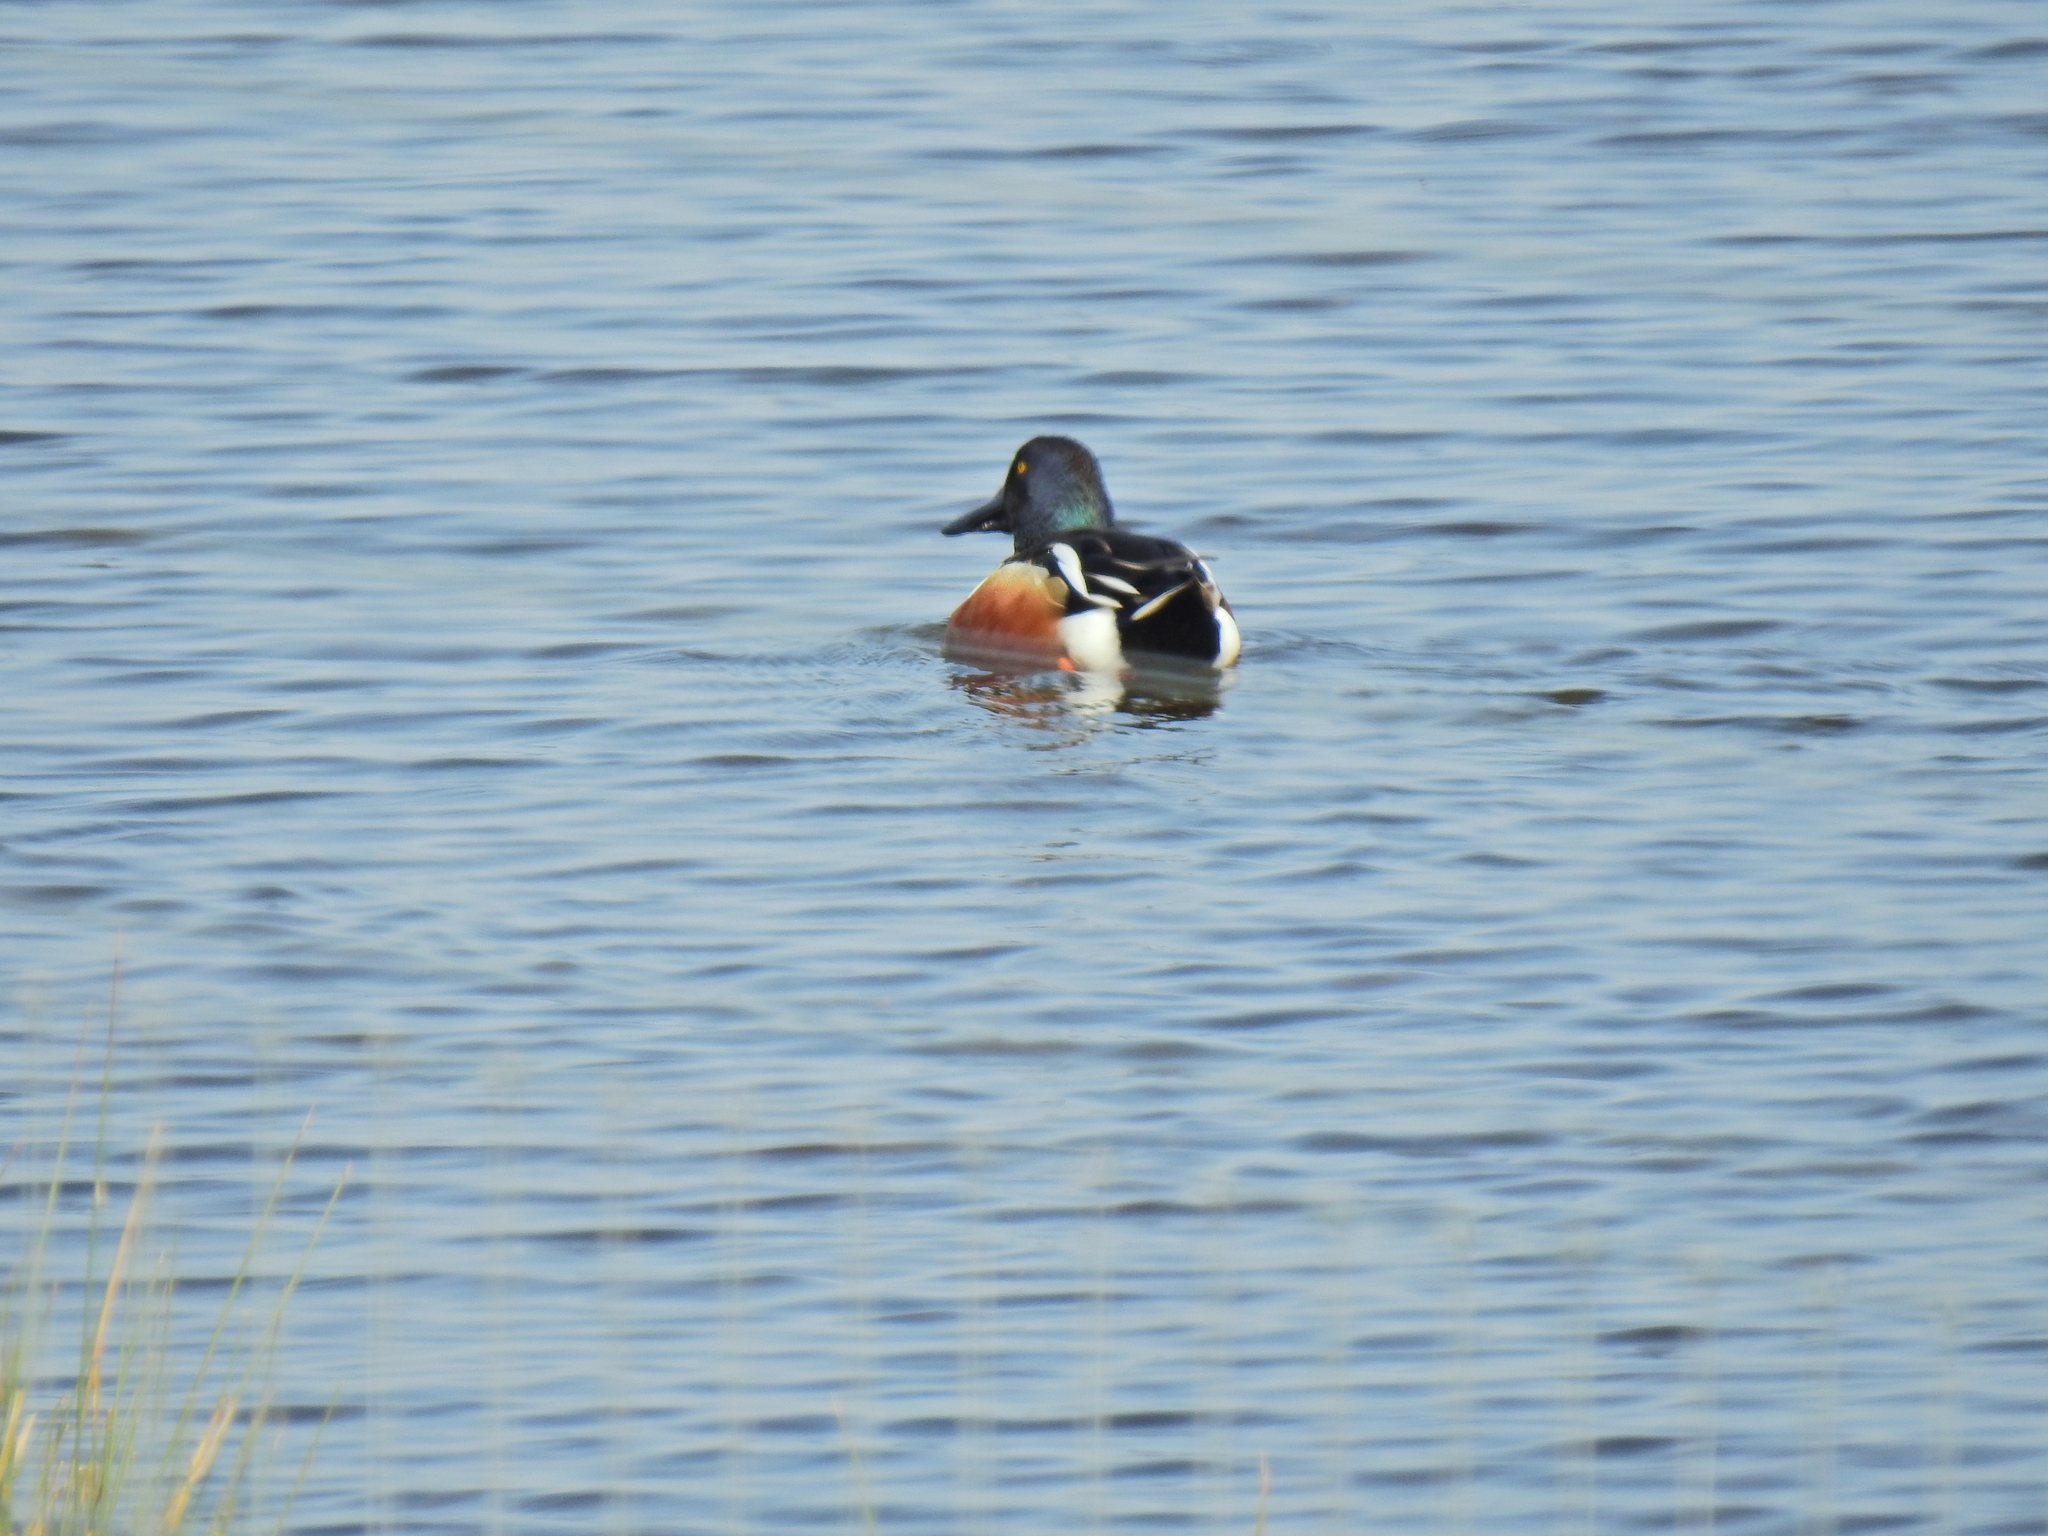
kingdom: Animalia
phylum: Chordata
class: Aves
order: Anseriformes
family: Anatidae
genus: Spatula
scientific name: Spatula clypeata
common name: Northern shoveler
